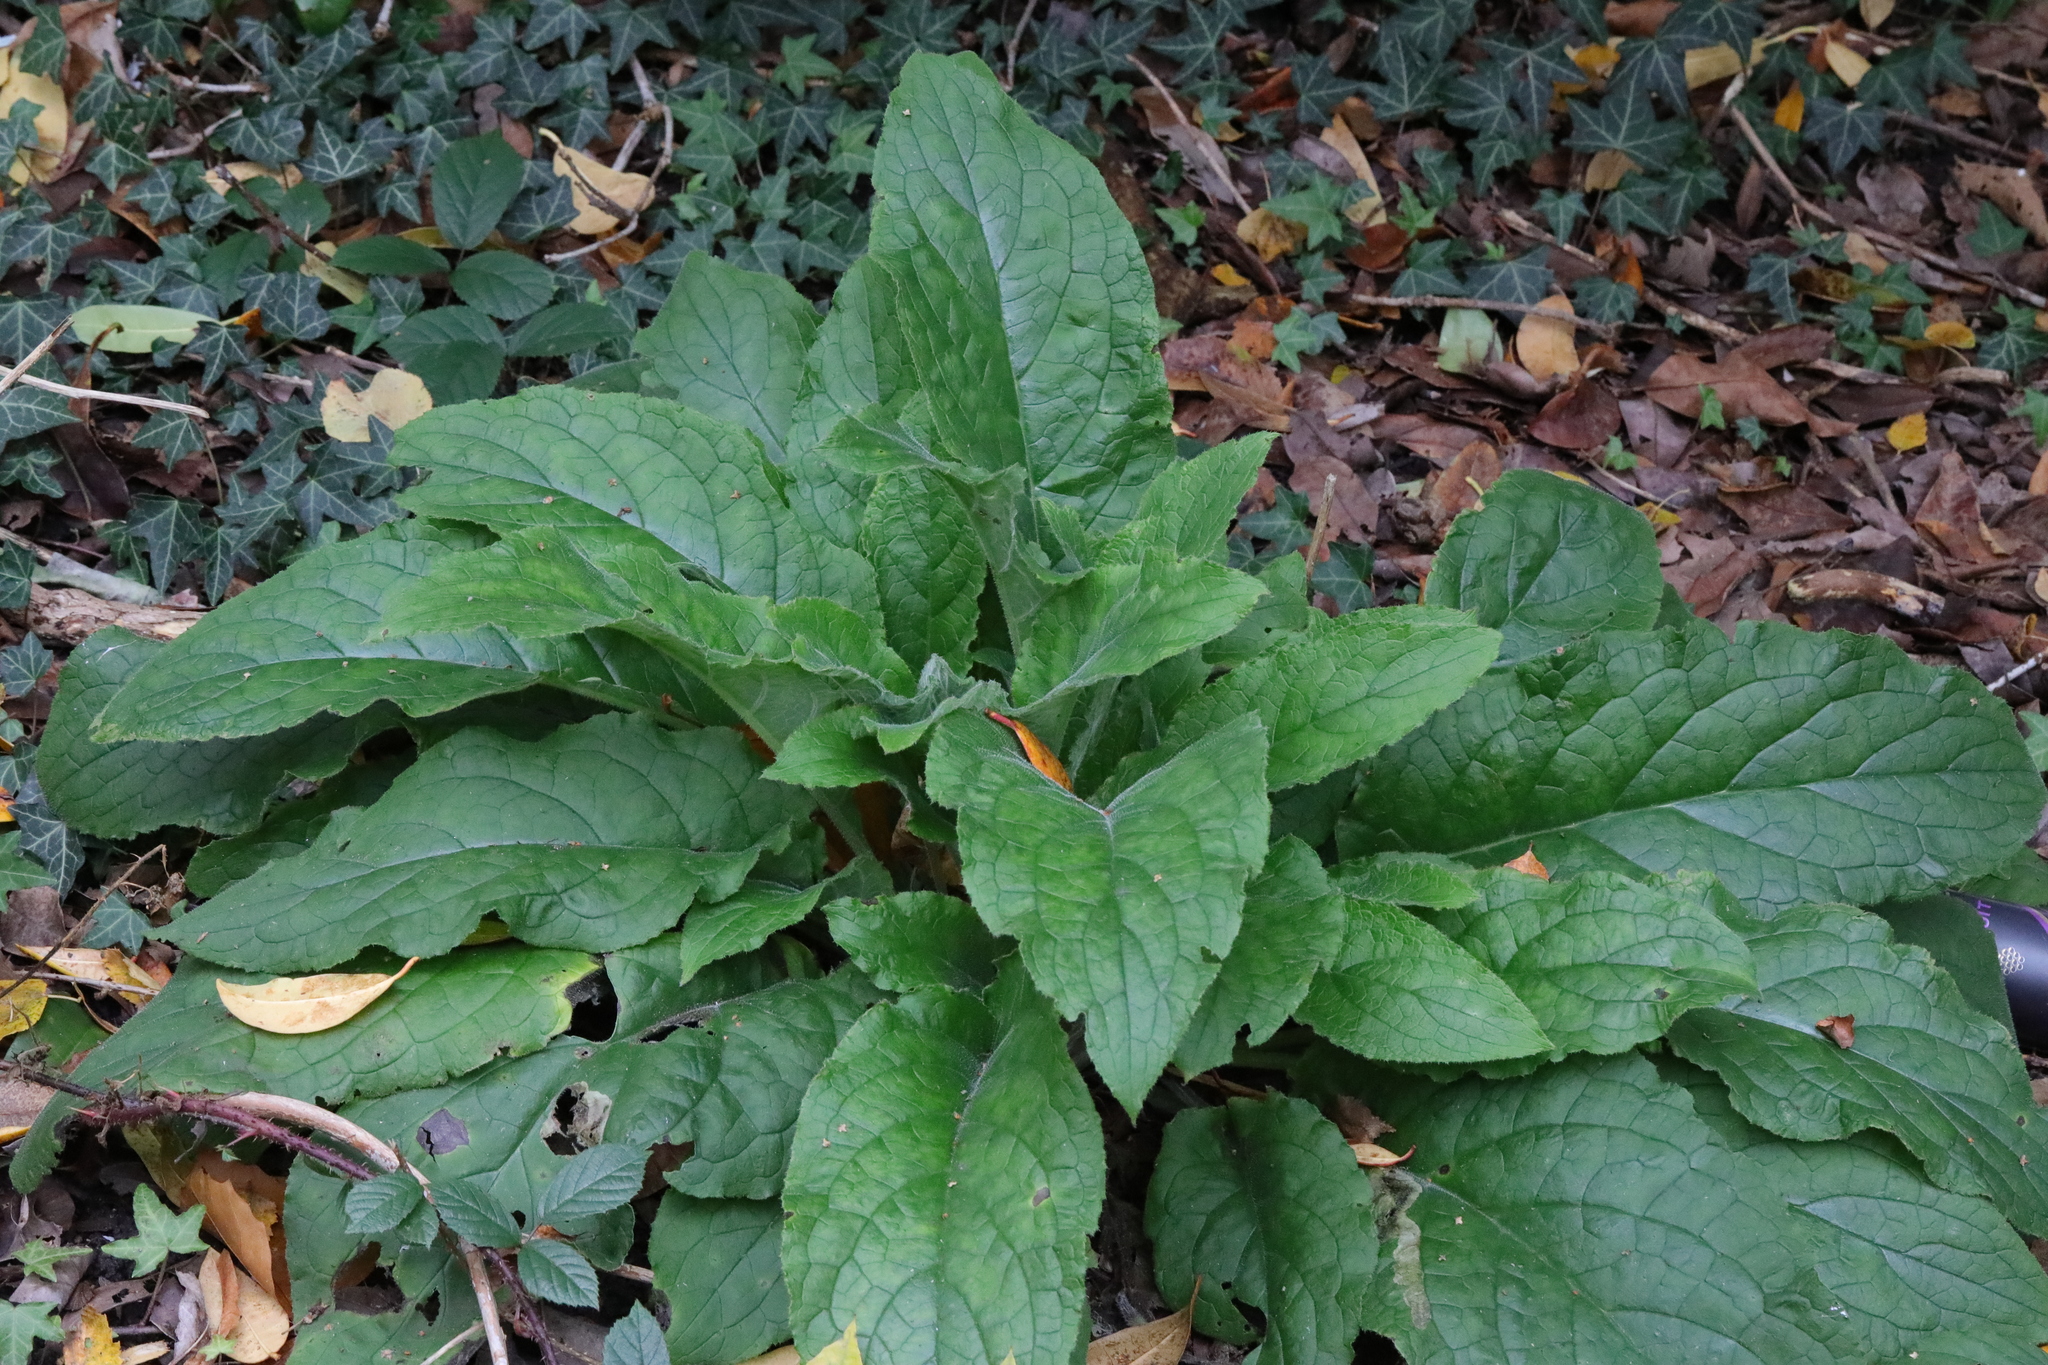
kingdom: Plantae
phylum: Tracheophyta
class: Magnoliopsida
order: Lamiales
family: Plantaginaceae
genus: Digitalis
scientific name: Digitalis purpurea
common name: Foxglove
